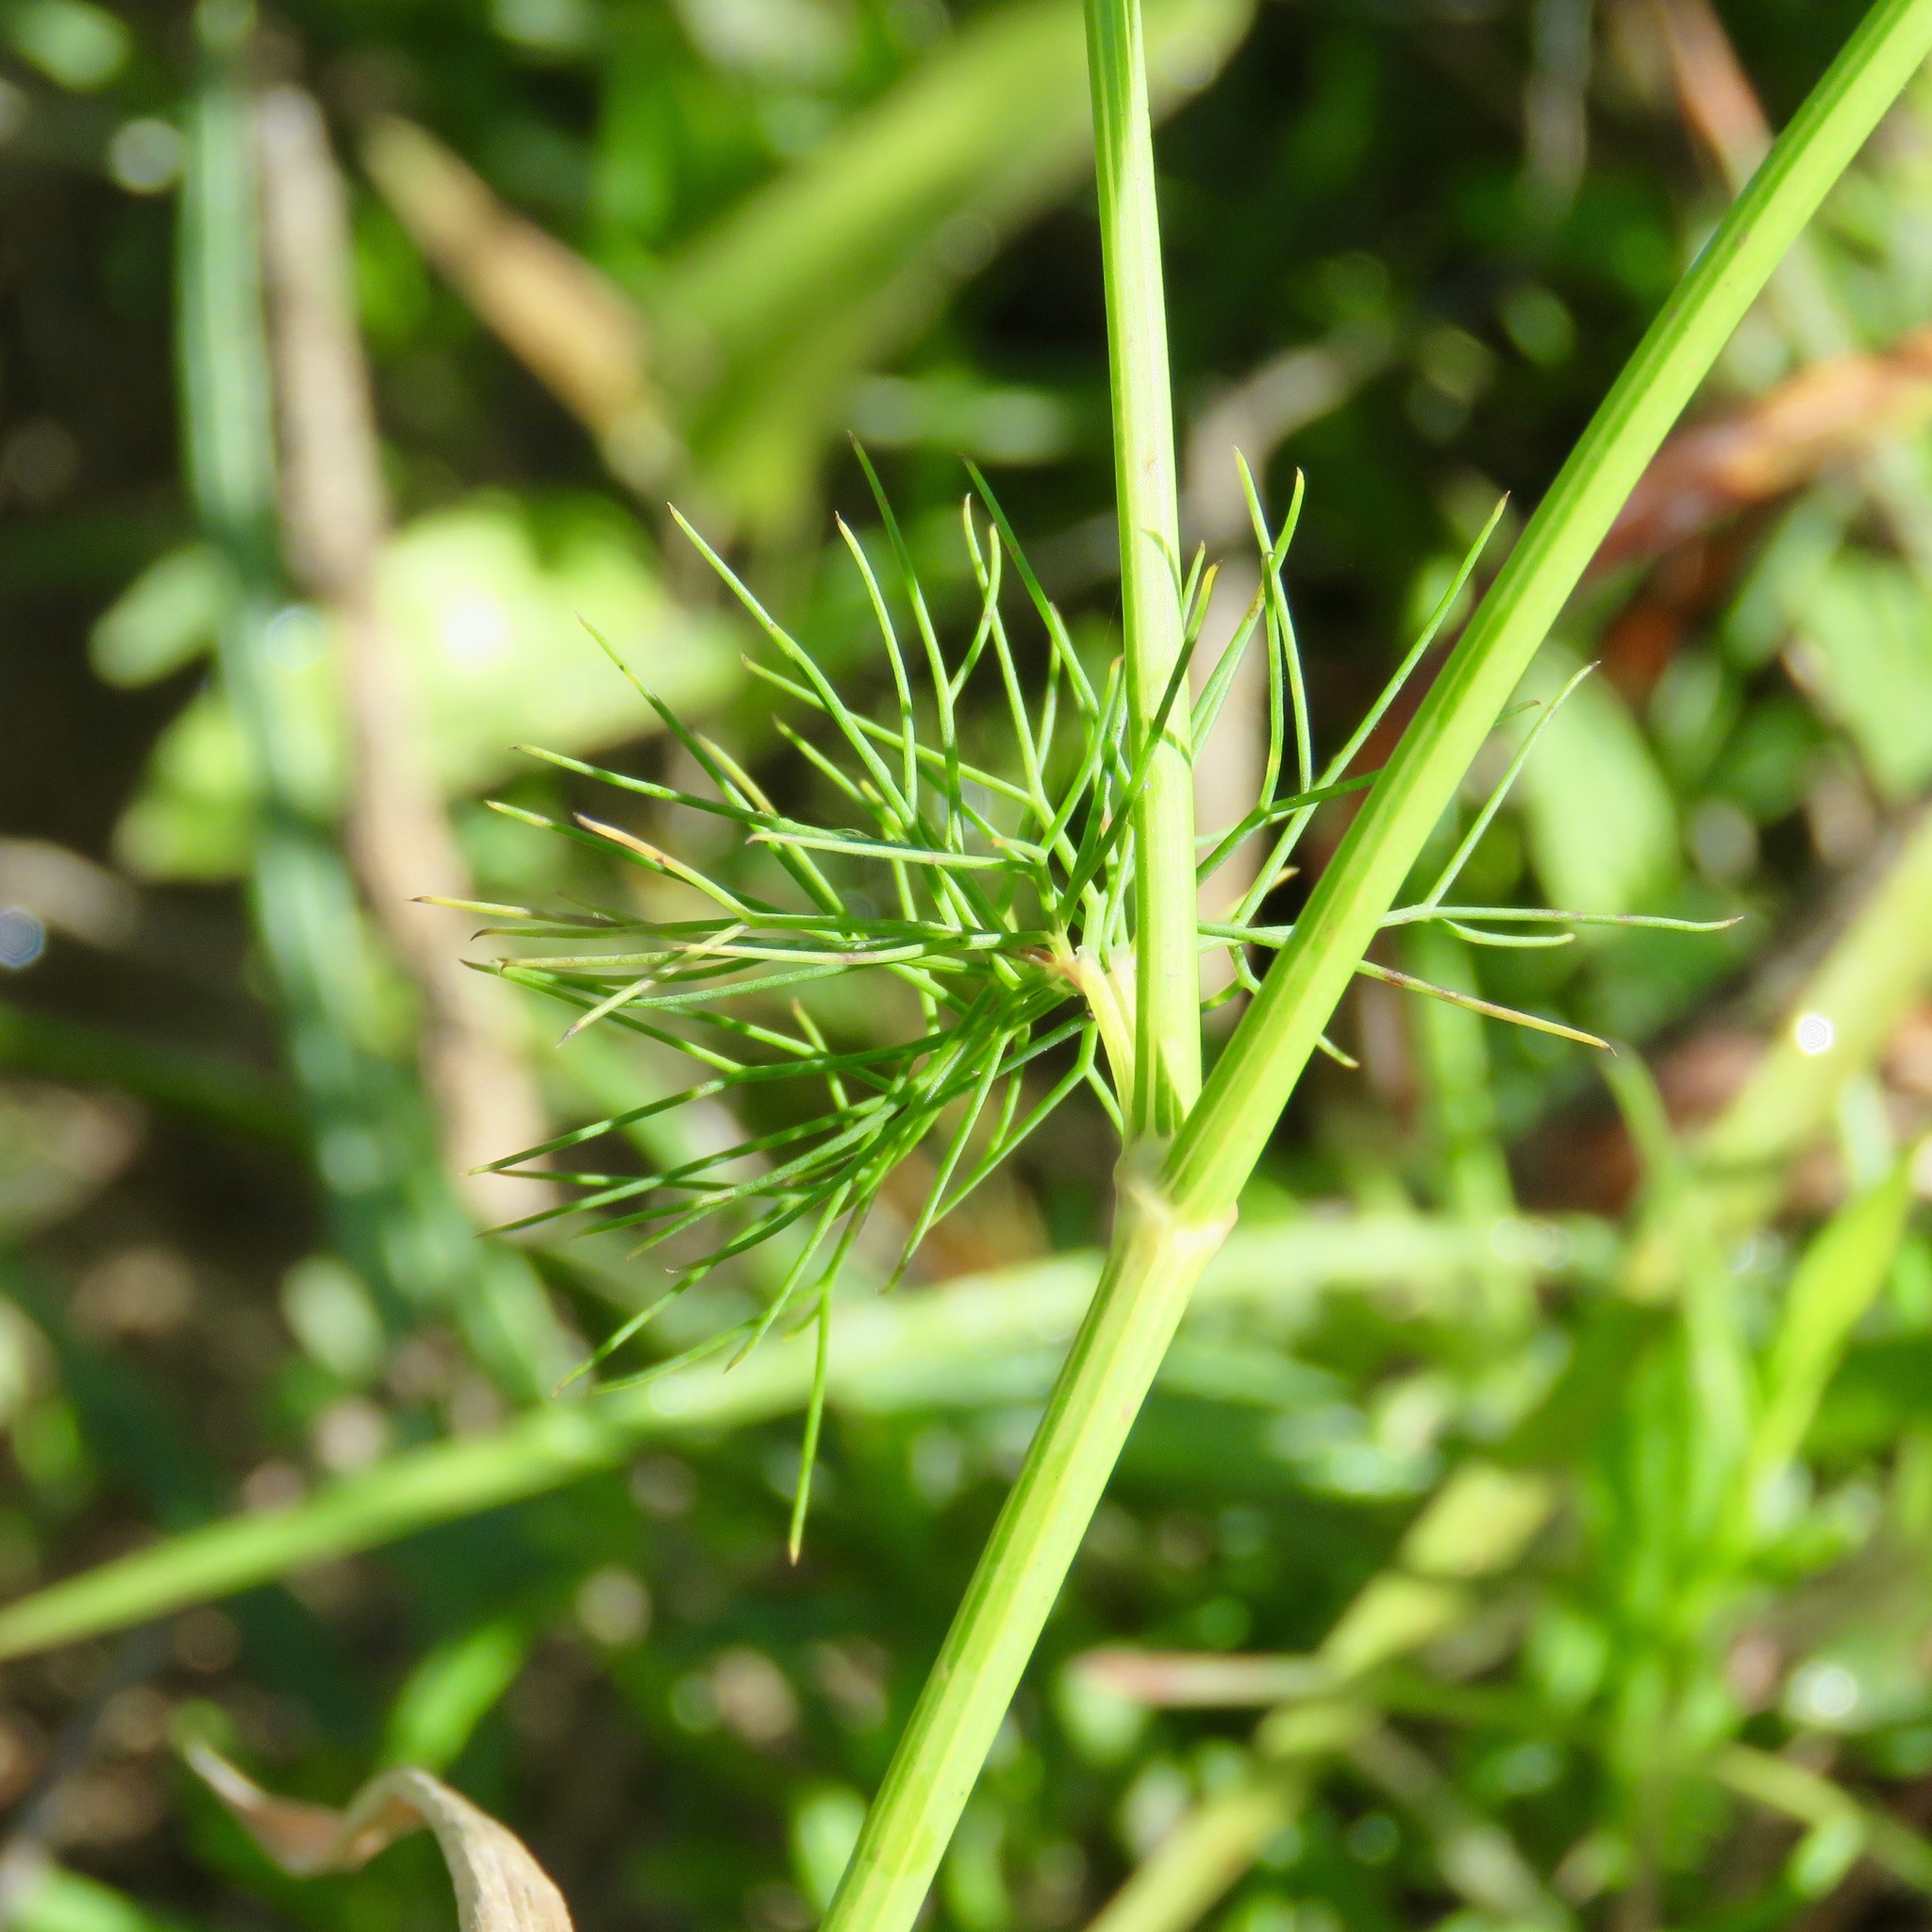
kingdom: Plantae
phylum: Tracheophyta
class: Magnoliopsida
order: Apiales
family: Apiaceae
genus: Ptilimnium
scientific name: Ptilimnium costatum
